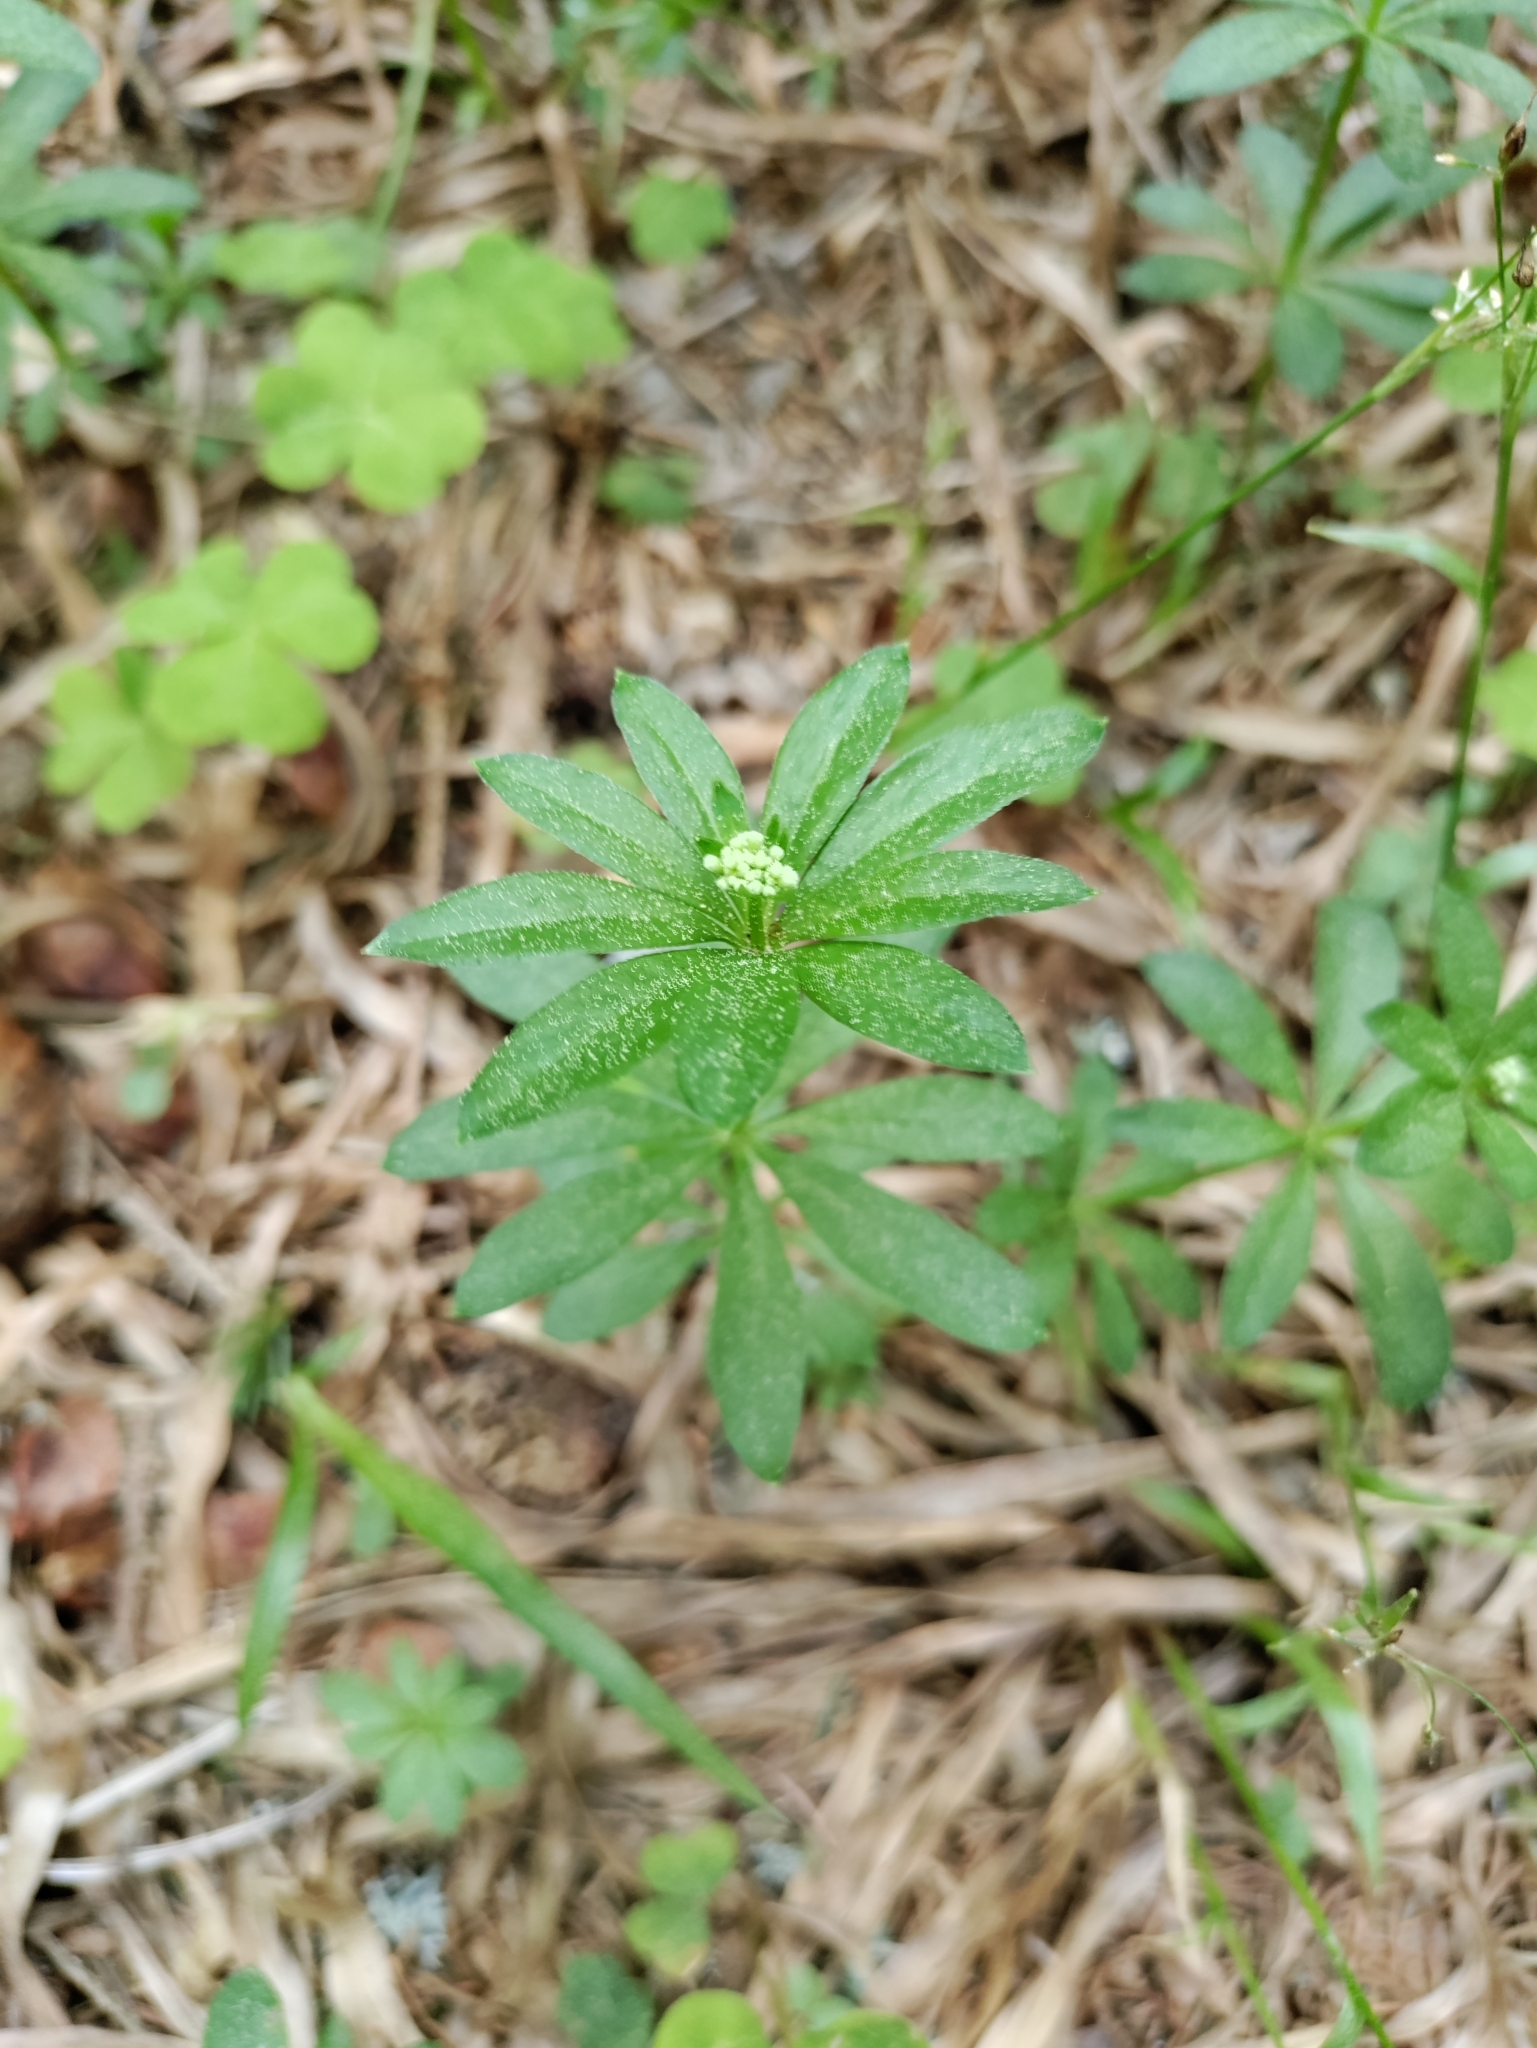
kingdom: Plantae
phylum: Tracheophyta
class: Magnoliopsida
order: Gentianales
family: Rubiaceae
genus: Galium
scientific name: Galium odoratum
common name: Sweet woodruff
